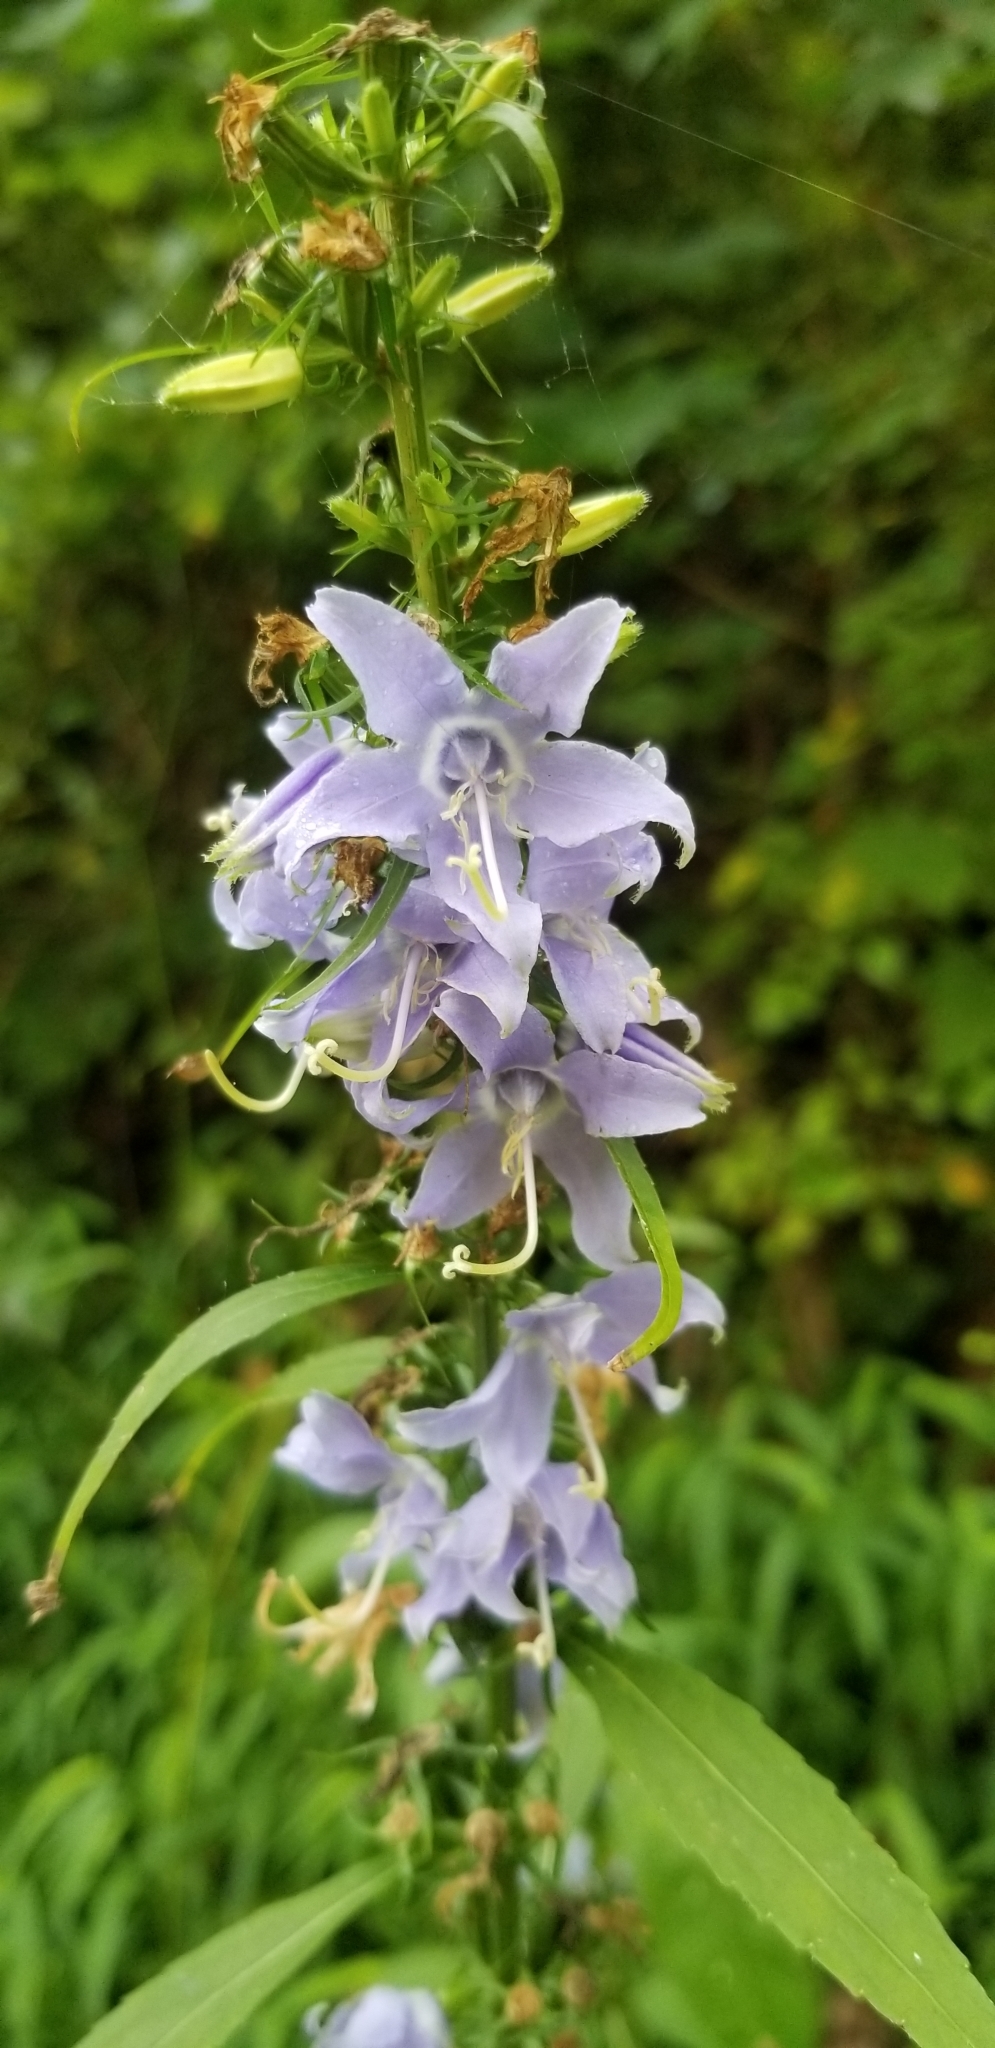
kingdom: Plantae
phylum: Tracheophyta
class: Magnoliopsida
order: Asterales
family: Campanulaceae
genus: Campanulastrum
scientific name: Campanulastrum americanum
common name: American bellflower
